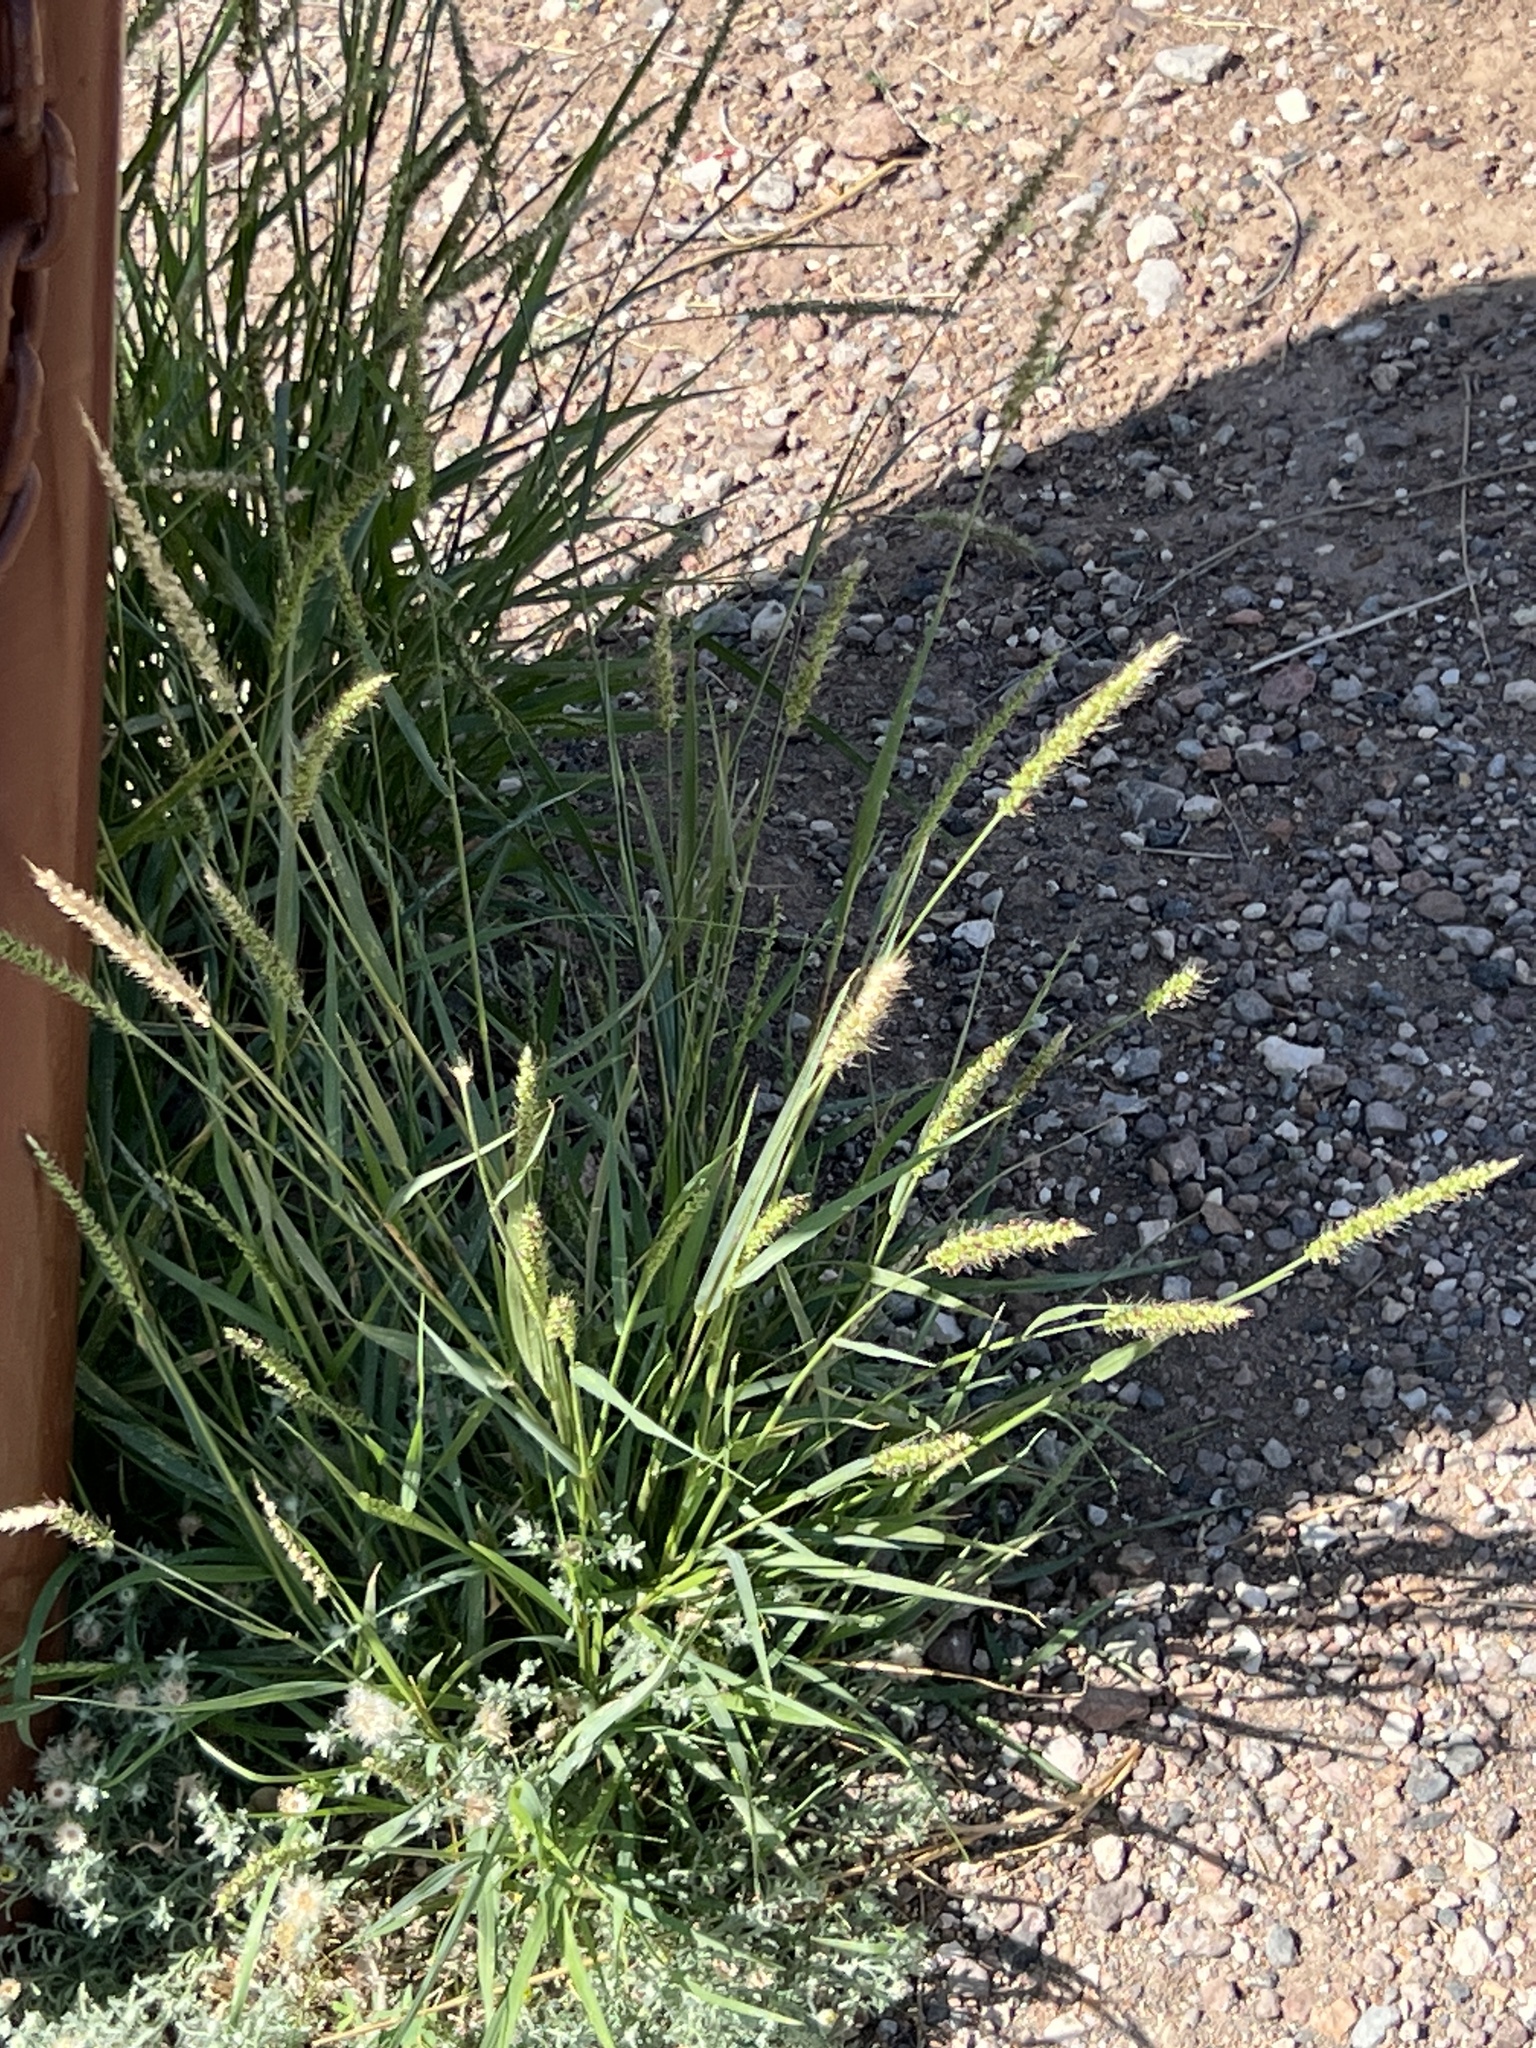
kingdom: Plantae
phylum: Tracheophyta
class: Liliopsida
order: Poales
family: Poaceae
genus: Setaria
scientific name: Setaria leucopila
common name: Plains bristle grass
